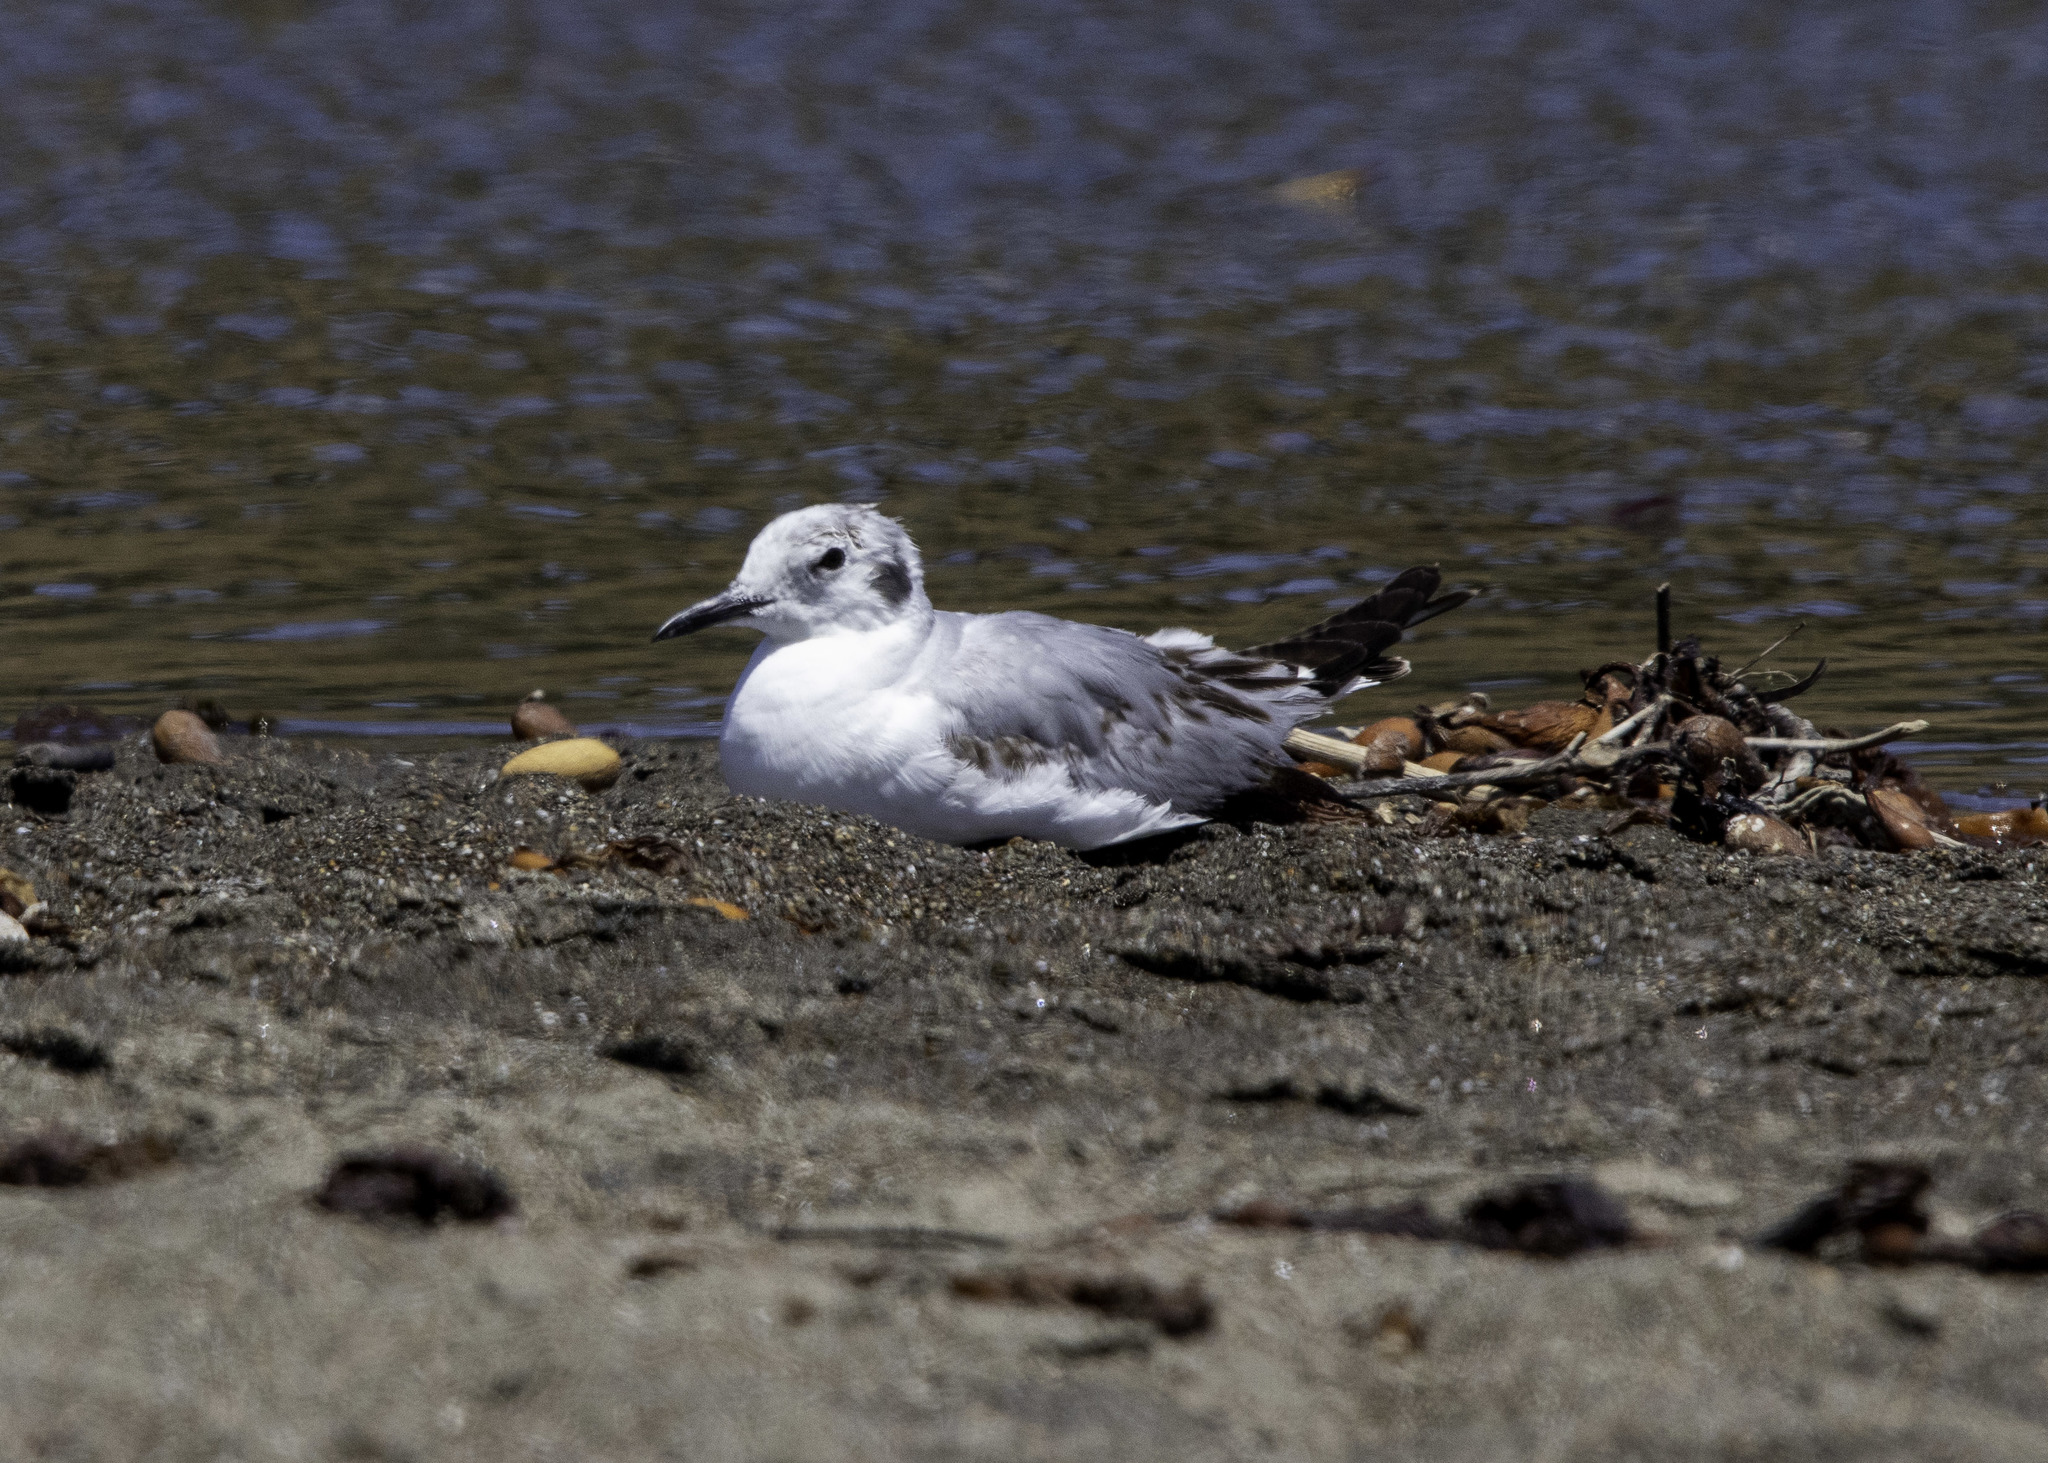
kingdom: Animalia
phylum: Chordata
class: Aves
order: Charadriiformes
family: Laridae
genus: Chroicocephalus
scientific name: Chroicocephalus philadelphia
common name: Bonaparte's gull
